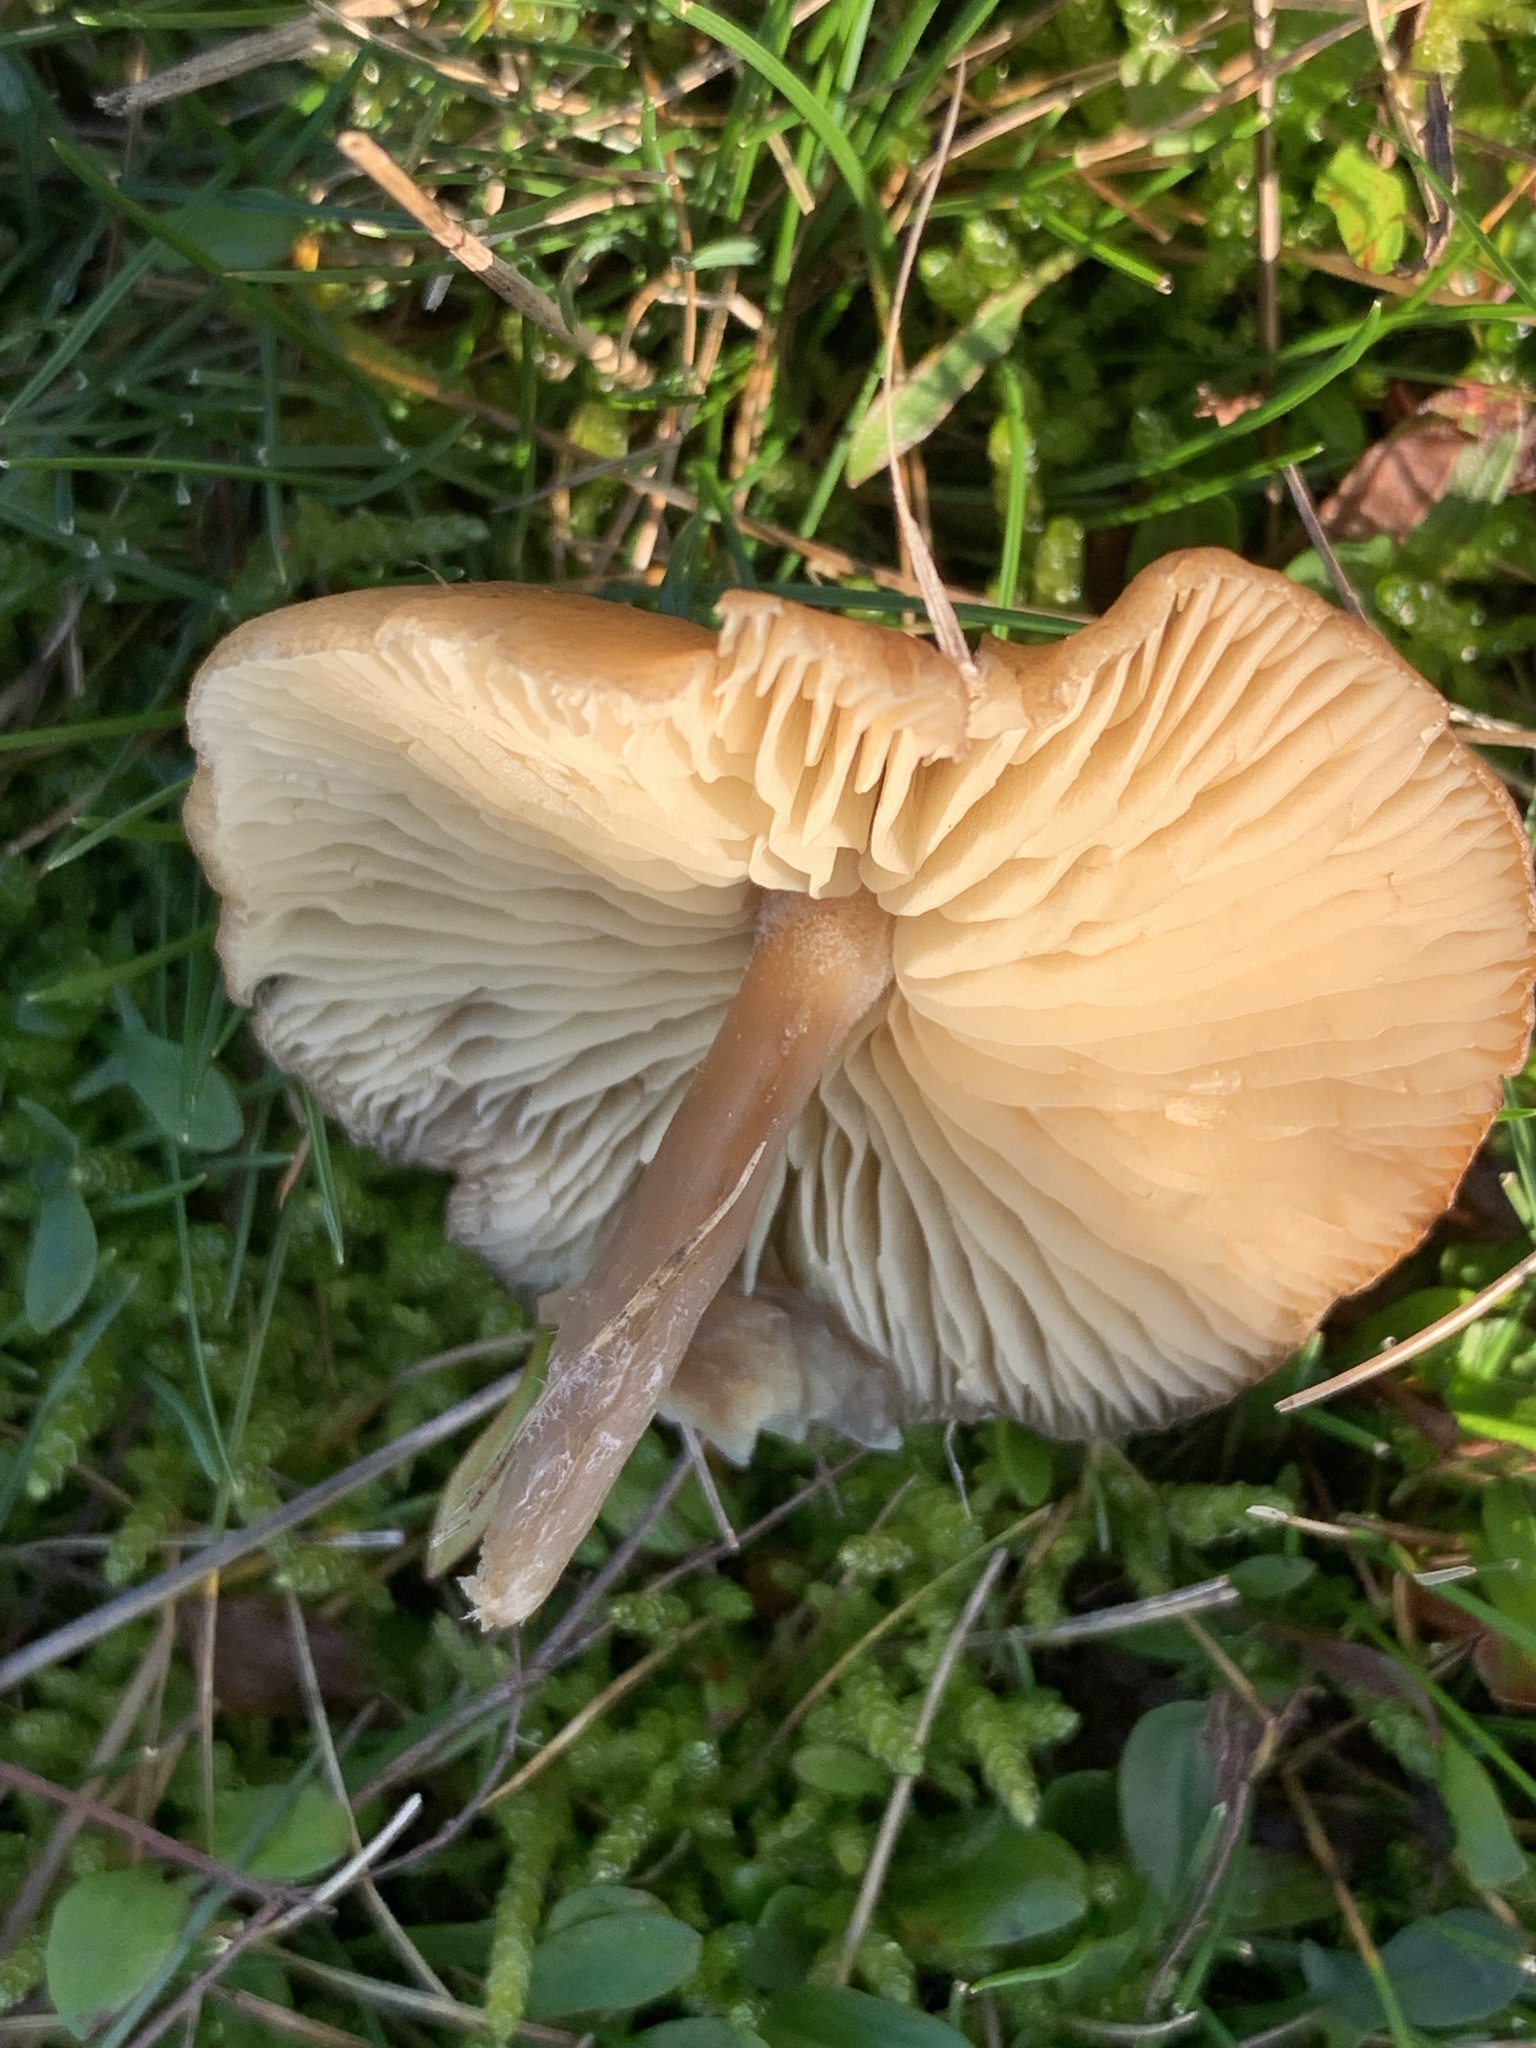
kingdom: Fungi
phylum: Basidiomycota
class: Agaricomycetes
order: Agaricales
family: Tricholomataceae
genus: Gamundia
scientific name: Gamundia striatula
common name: Lined meadowcap
